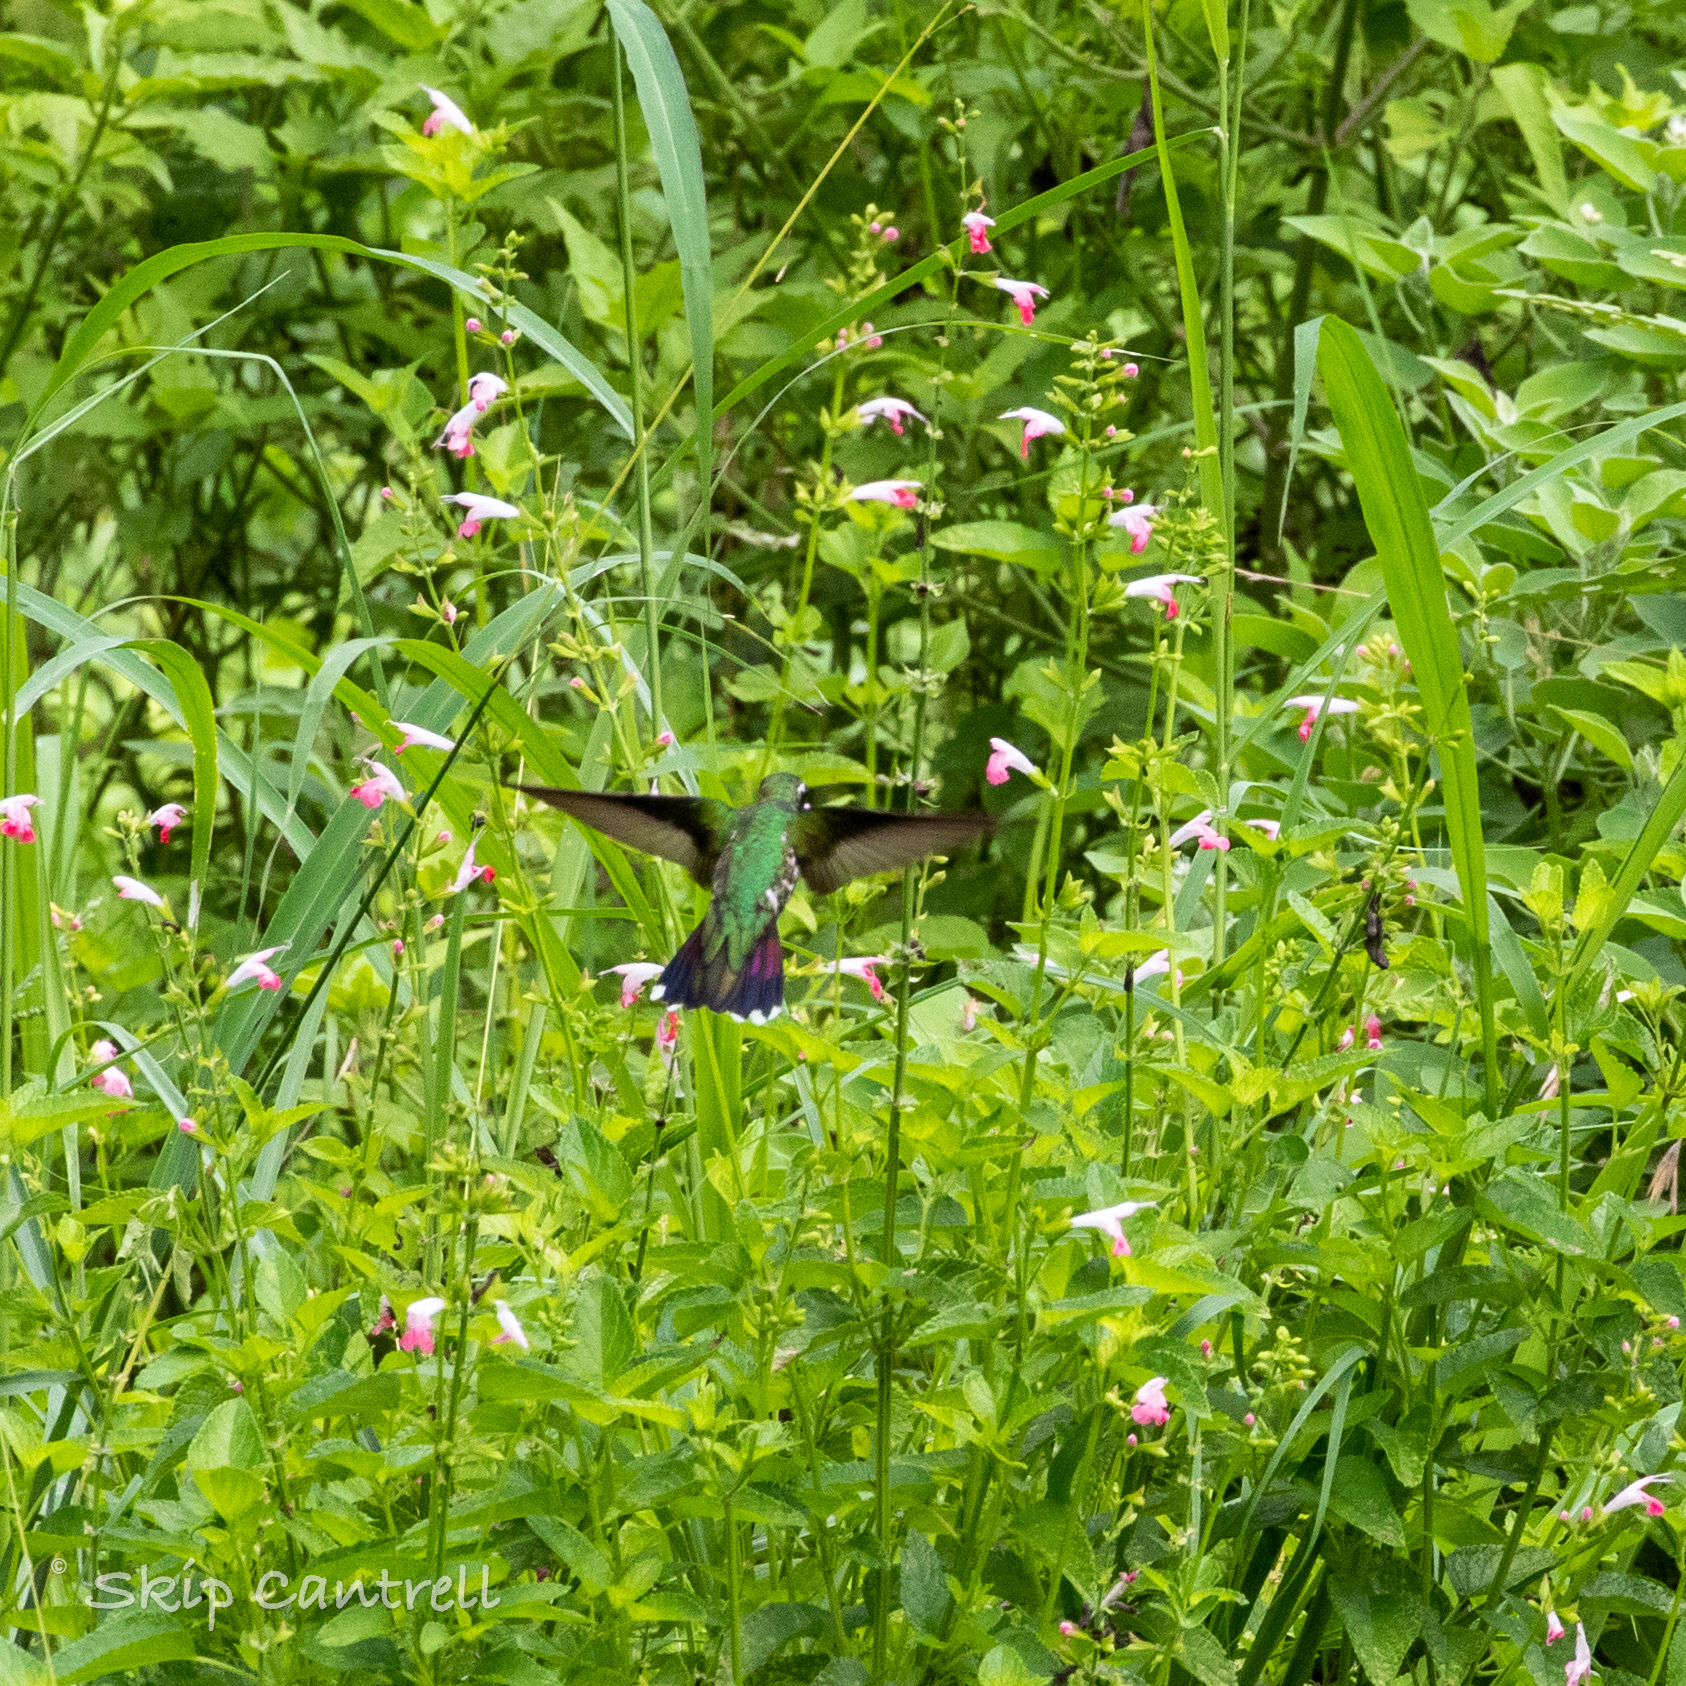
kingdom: Animalia
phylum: Chordata
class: Aves
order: Apodiformes
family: Trochilidae
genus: Anthracothorax
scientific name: Anthracothorax prevostii
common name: Green-breasted mango
